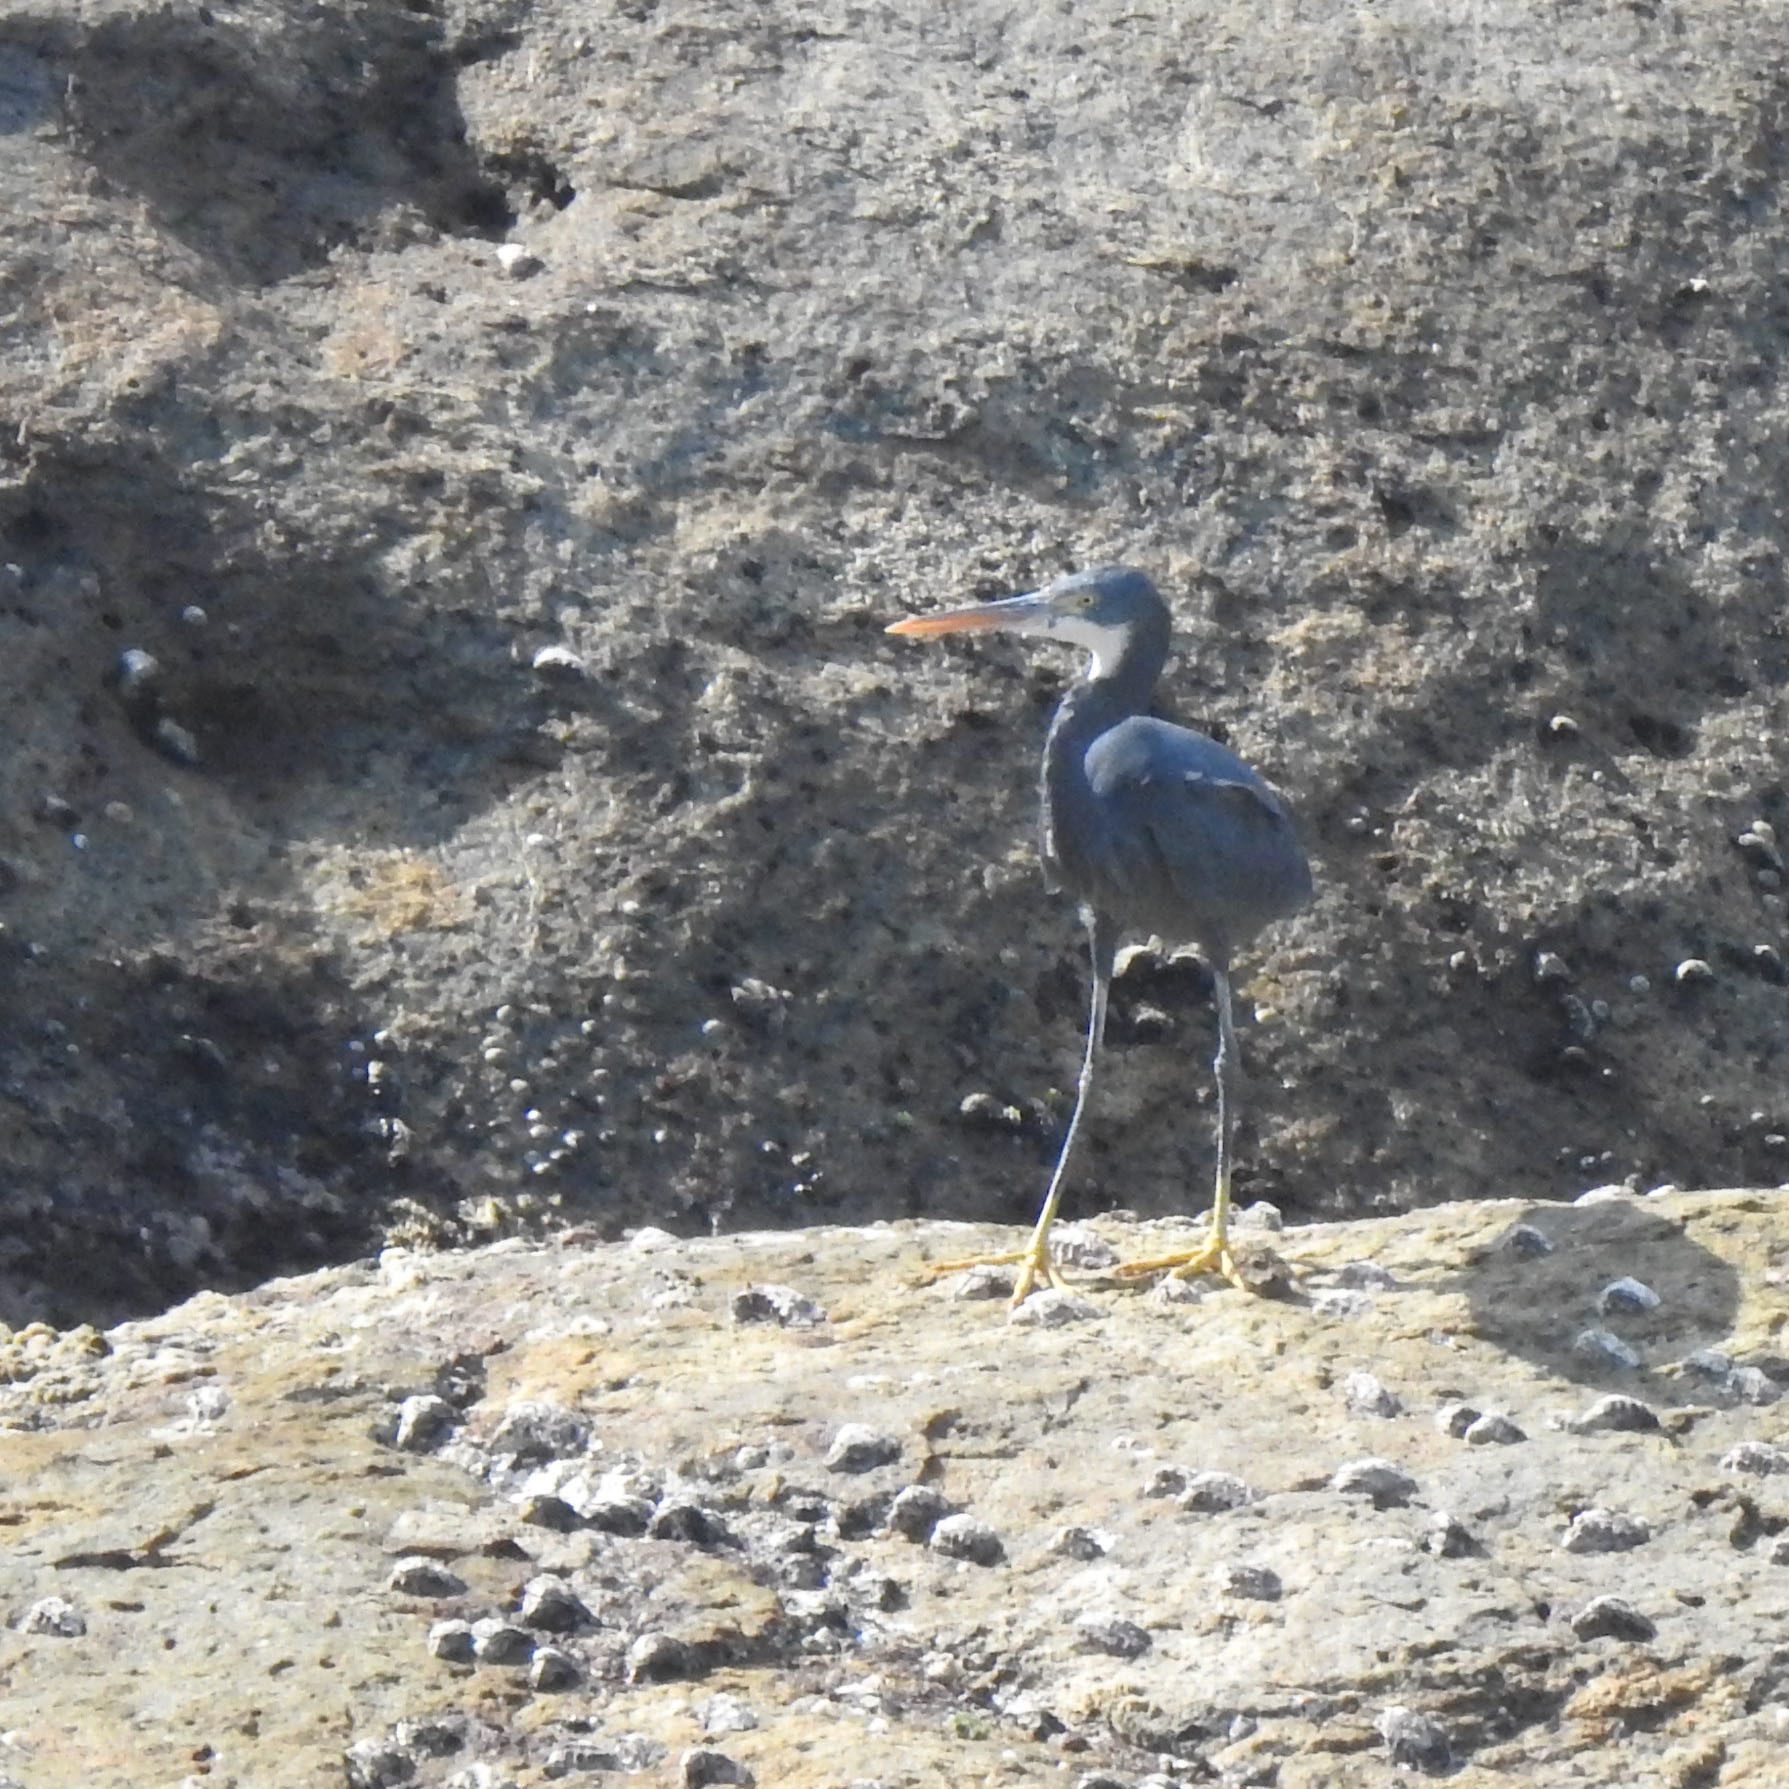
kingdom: Animalia
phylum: Chordata
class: Aves
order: Pelecaniformes
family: Ardeidae
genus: Egretta
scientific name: Egretta gularis
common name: Western reef-heron
